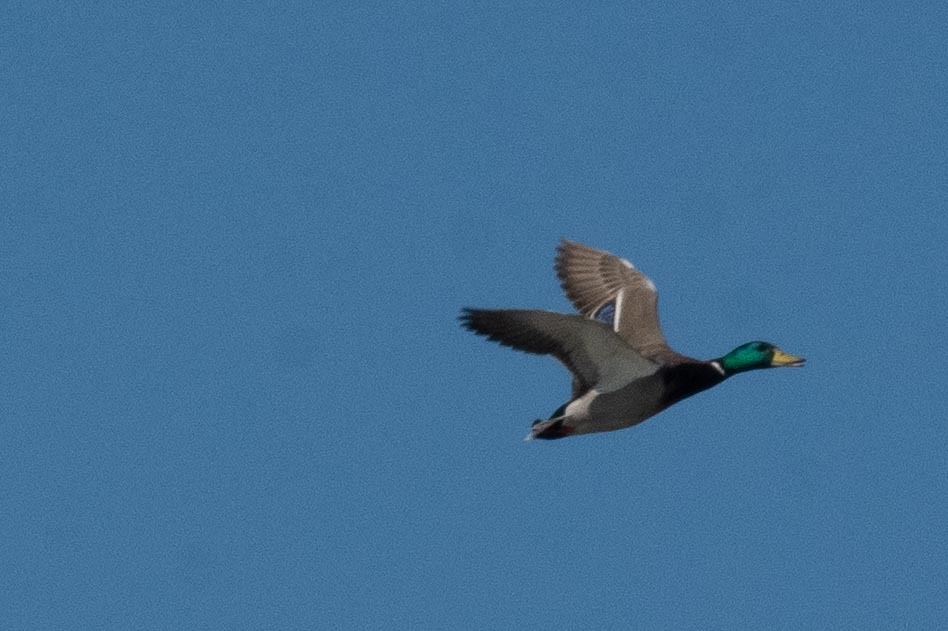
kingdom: Animalia
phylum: Chordata
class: Aves
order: Anseriformes
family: Anatidae
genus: Anas
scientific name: Anas platyrhynchos
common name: Mallard
